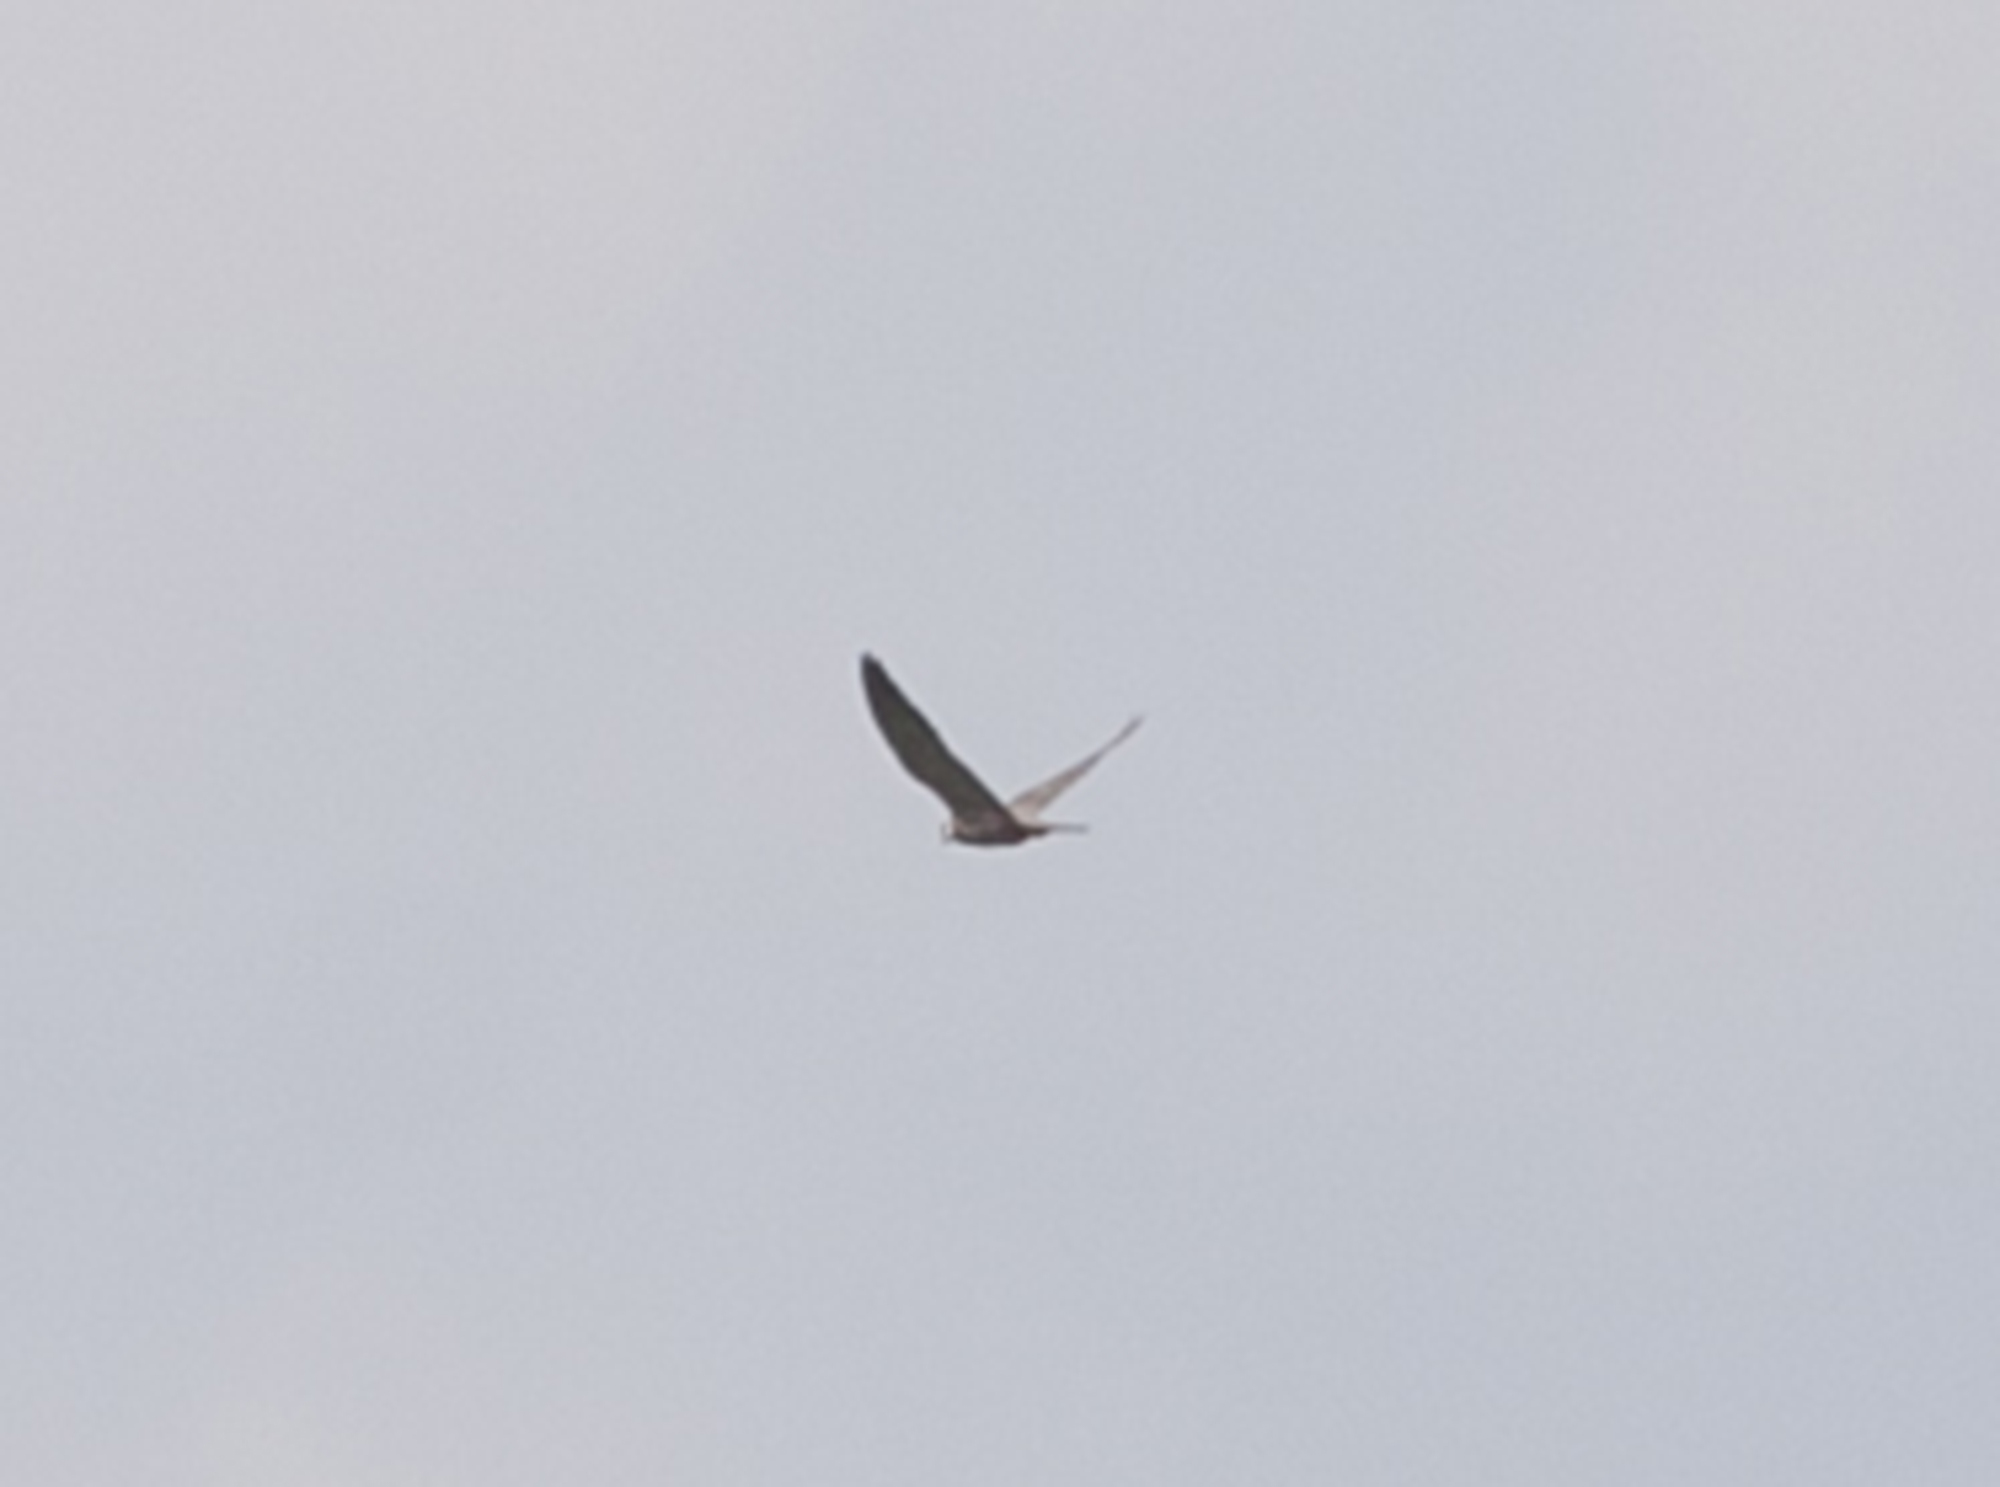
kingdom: Animalia
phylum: Chordata
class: Aves
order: Falconiformes
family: Falconidae
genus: Falco
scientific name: Falco subbuteo
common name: Eurasian hobby
